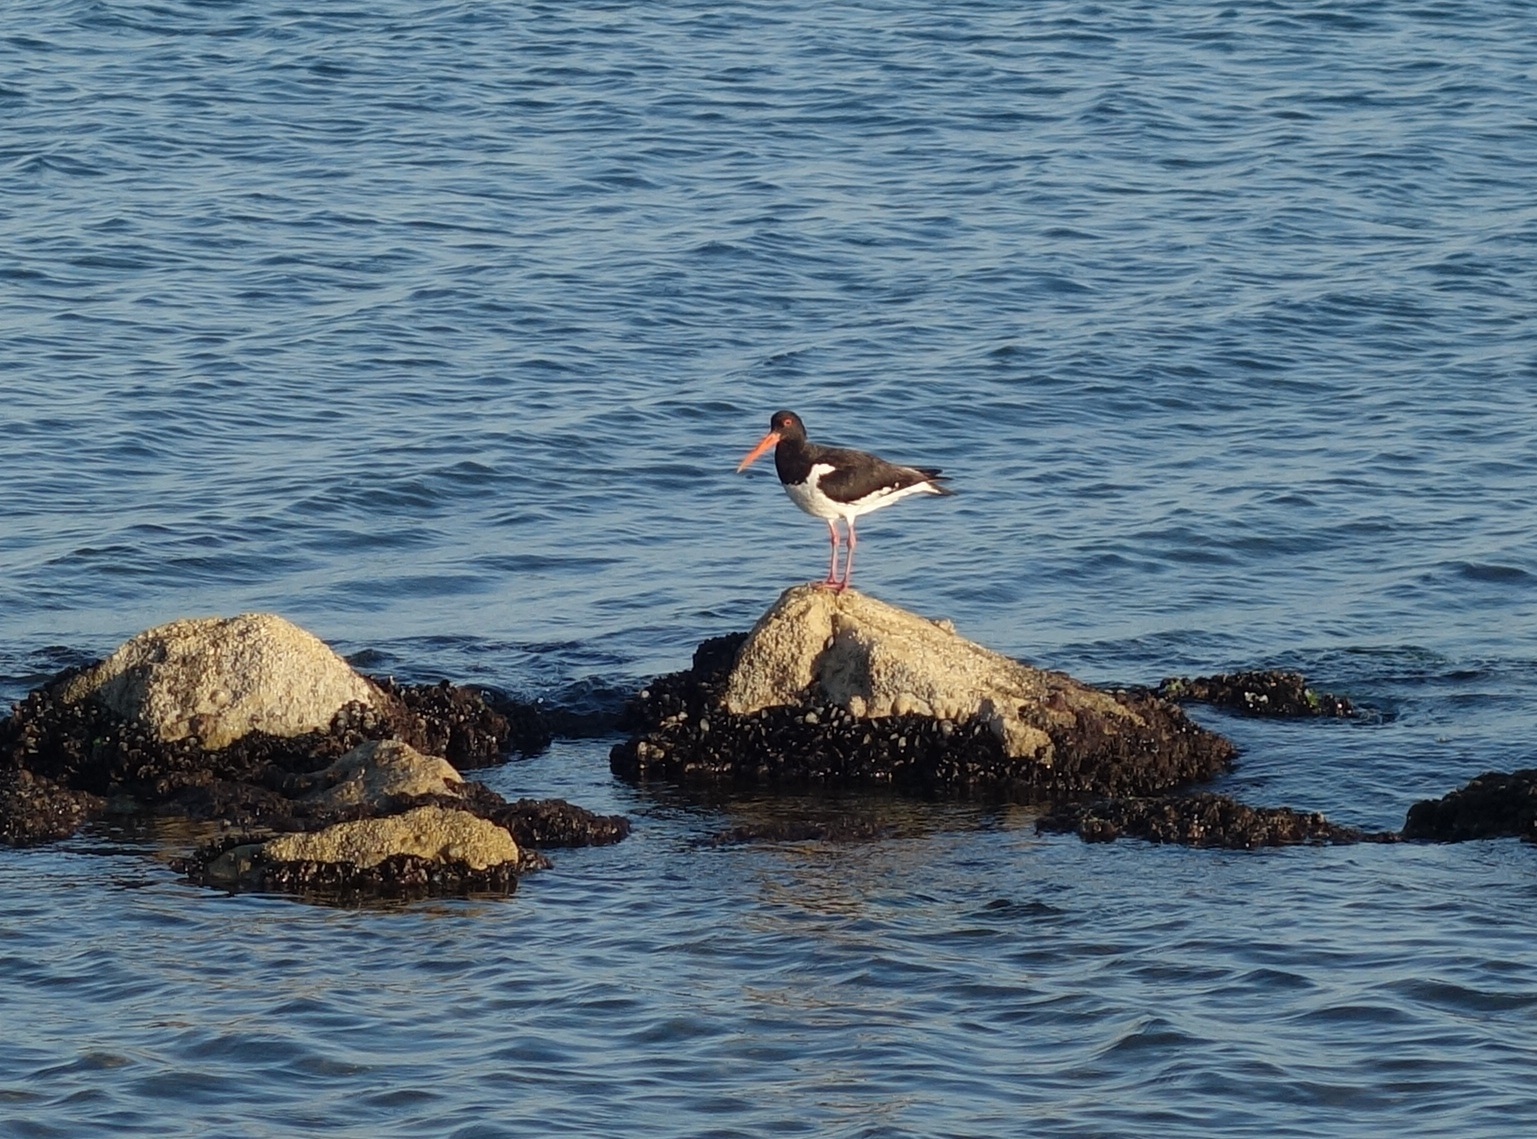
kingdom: Animalia
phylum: Chordata
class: Aves
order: Charadriiformes
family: Haematopodidae
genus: Haematopus
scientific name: Haematopus ostralegus
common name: Eurasian oystercatcher
